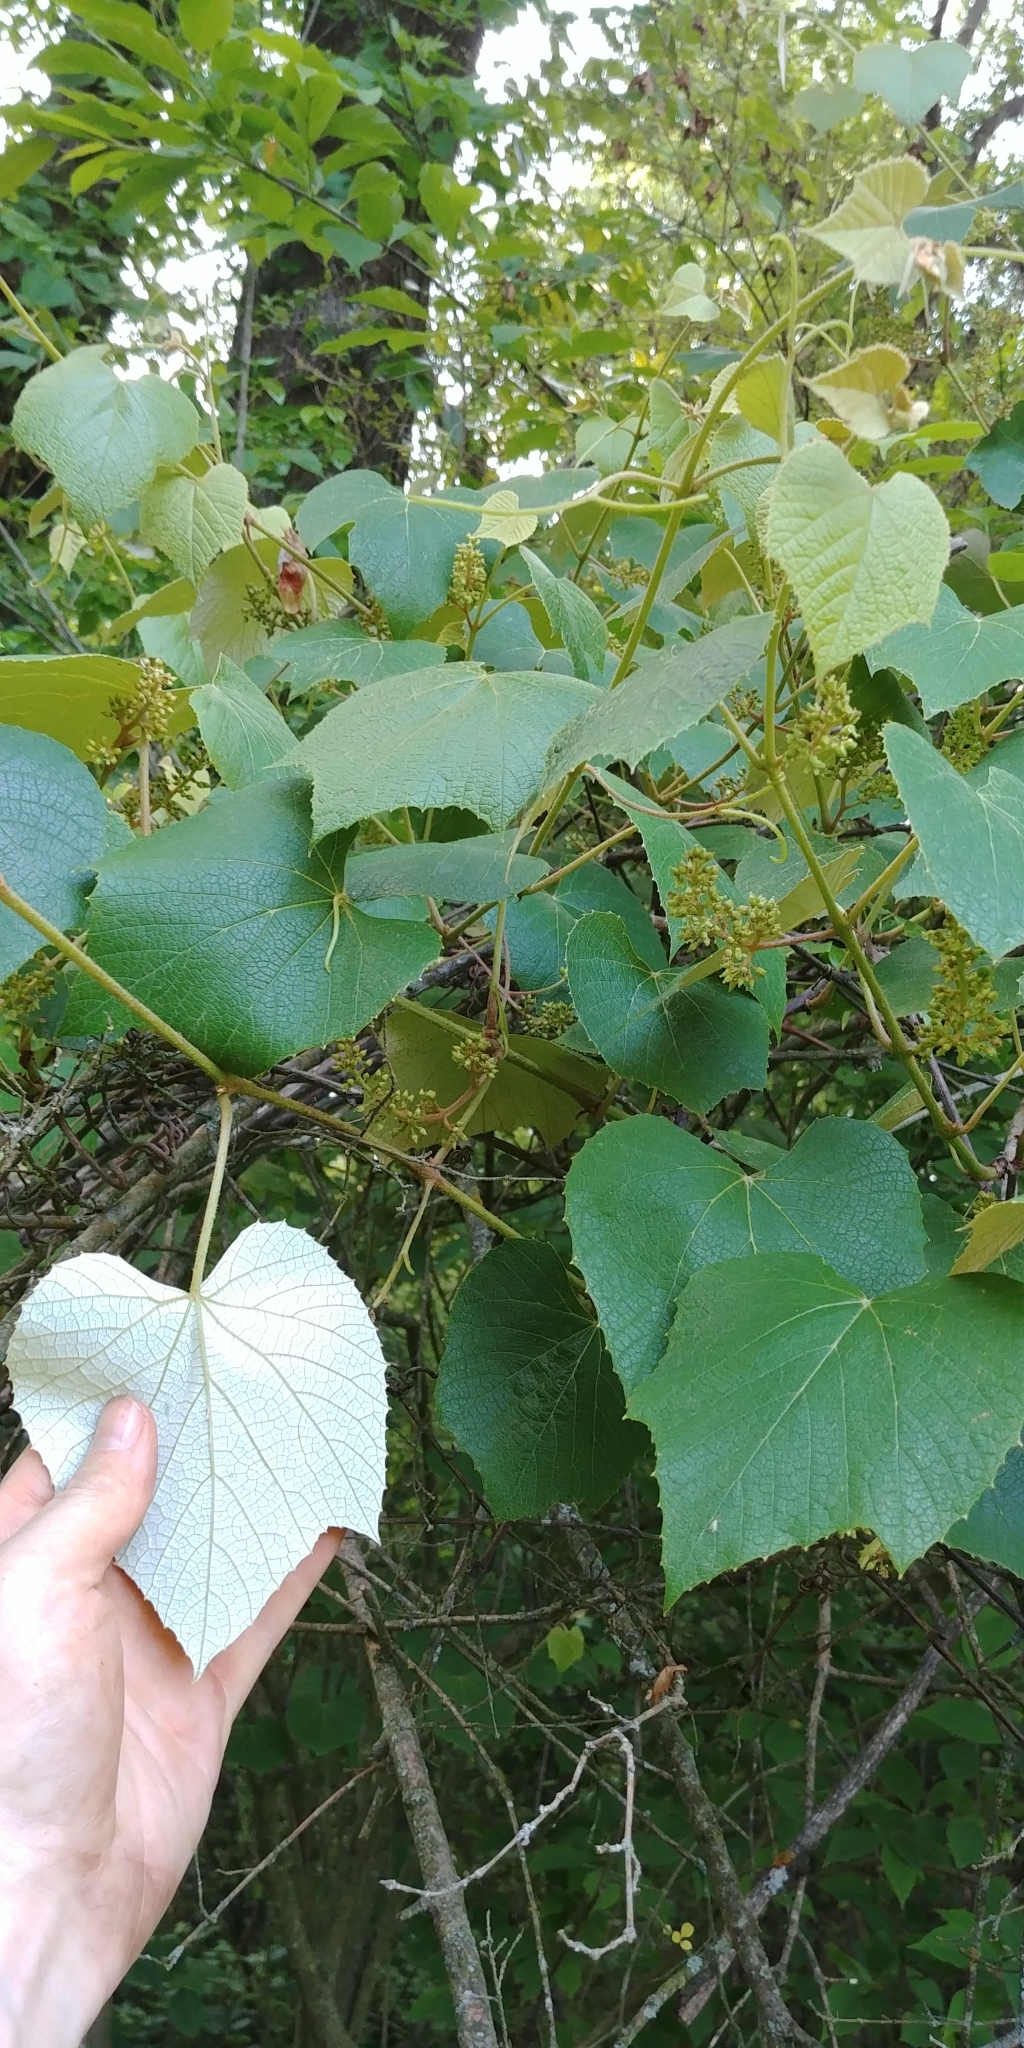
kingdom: Plantae
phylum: Tracheophyta
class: Magnoliopsida
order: Vitales
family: Vitaceae
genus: Vitis
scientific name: Vitis labrusca
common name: Concord grape
